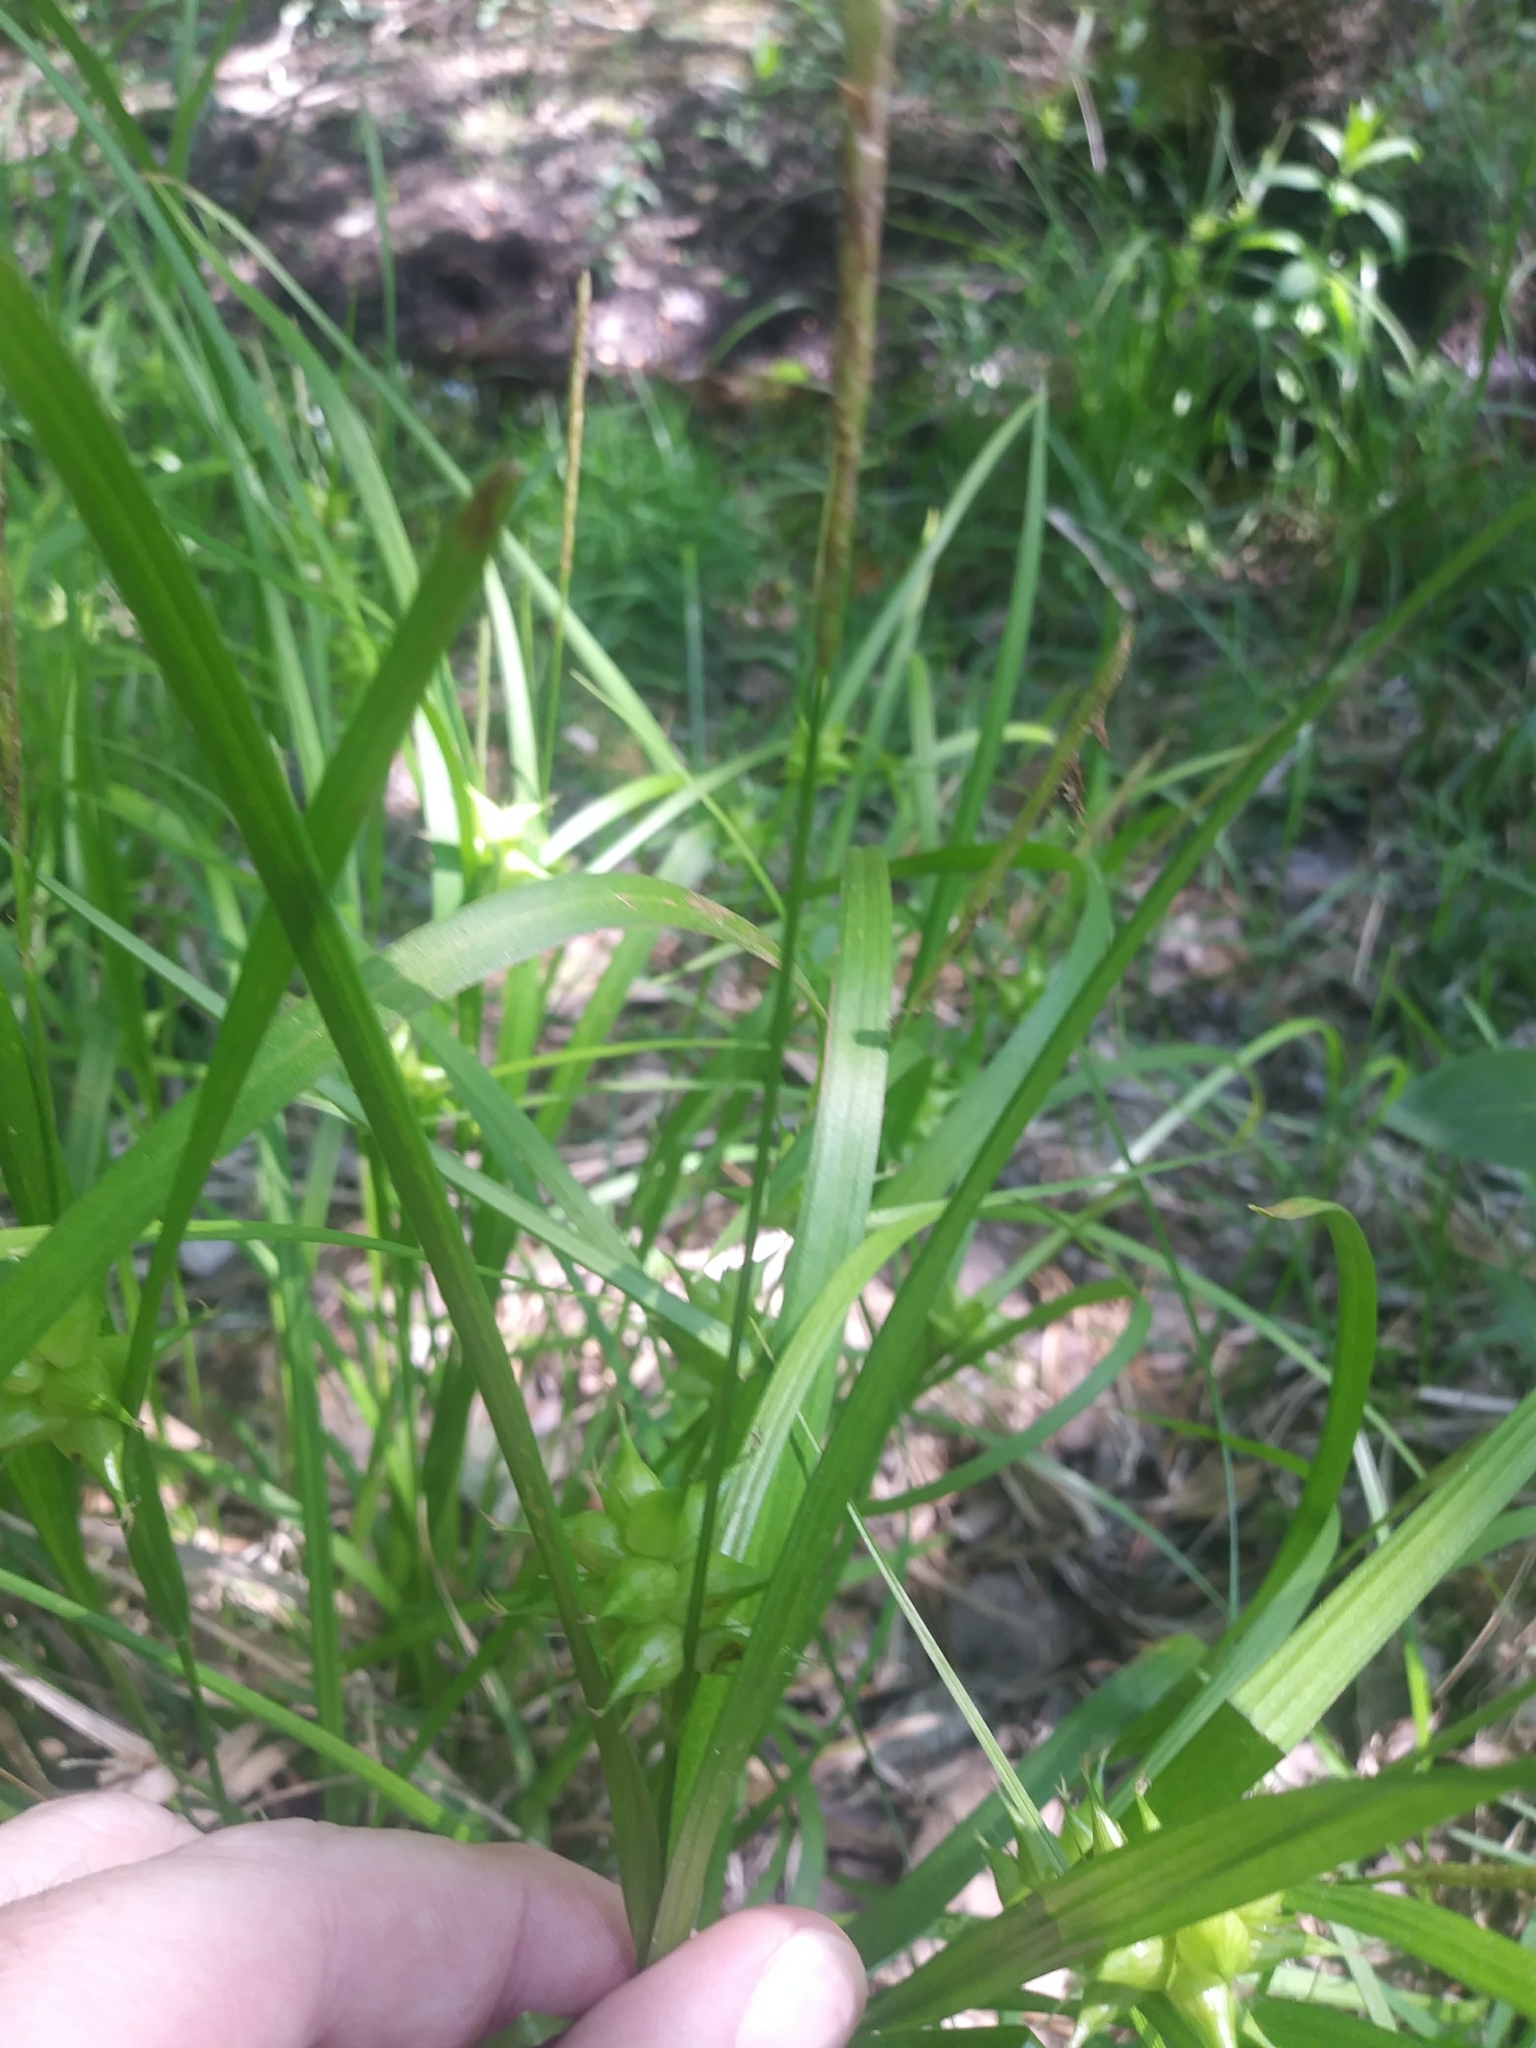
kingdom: Plantae
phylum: Tracheophyta
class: Liliopsida
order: Poales
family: Cyperaceae
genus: Carex
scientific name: Carex intumescens
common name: Greater bladder sedge
